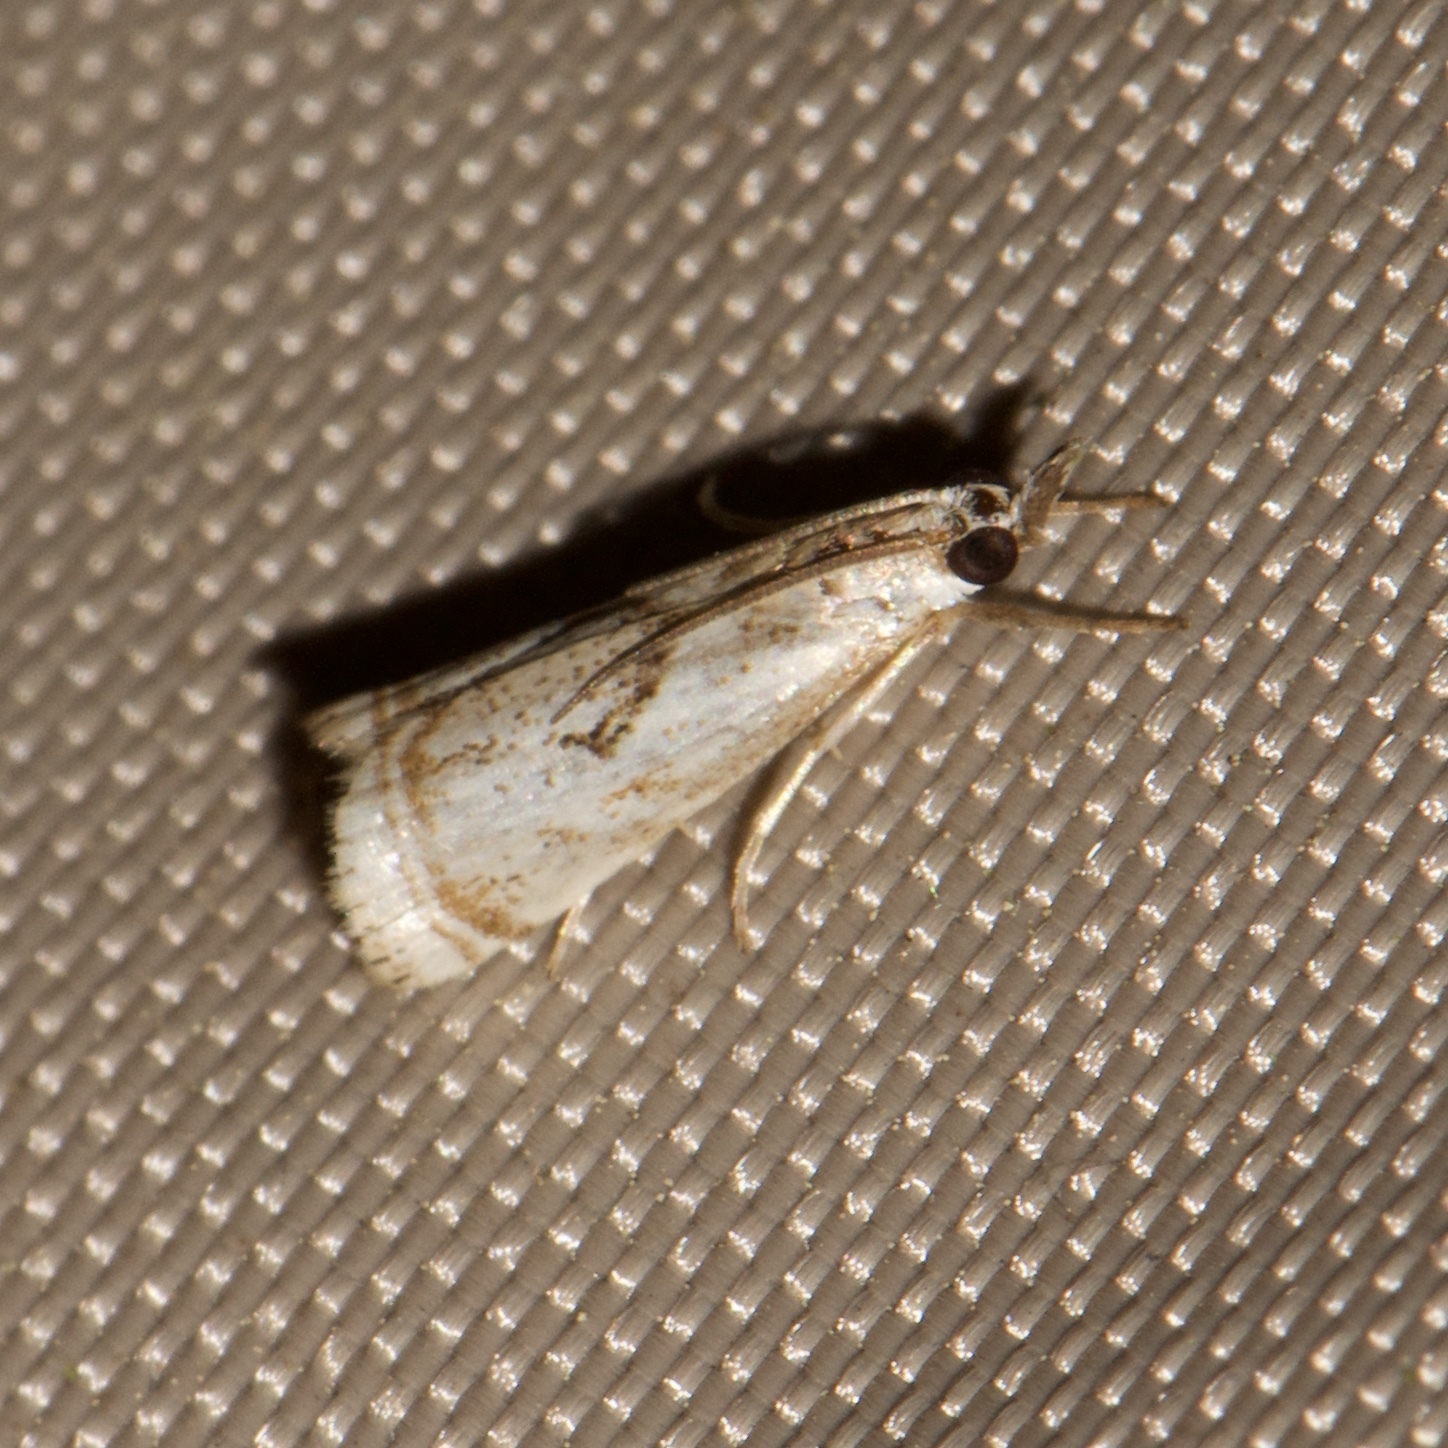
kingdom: Animalia
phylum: Arthropoda
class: Insecta
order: Lepidoptera
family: Crambidae
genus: Microcrambus
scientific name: Microcrambus elegans
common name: Elegant grass-veneer
